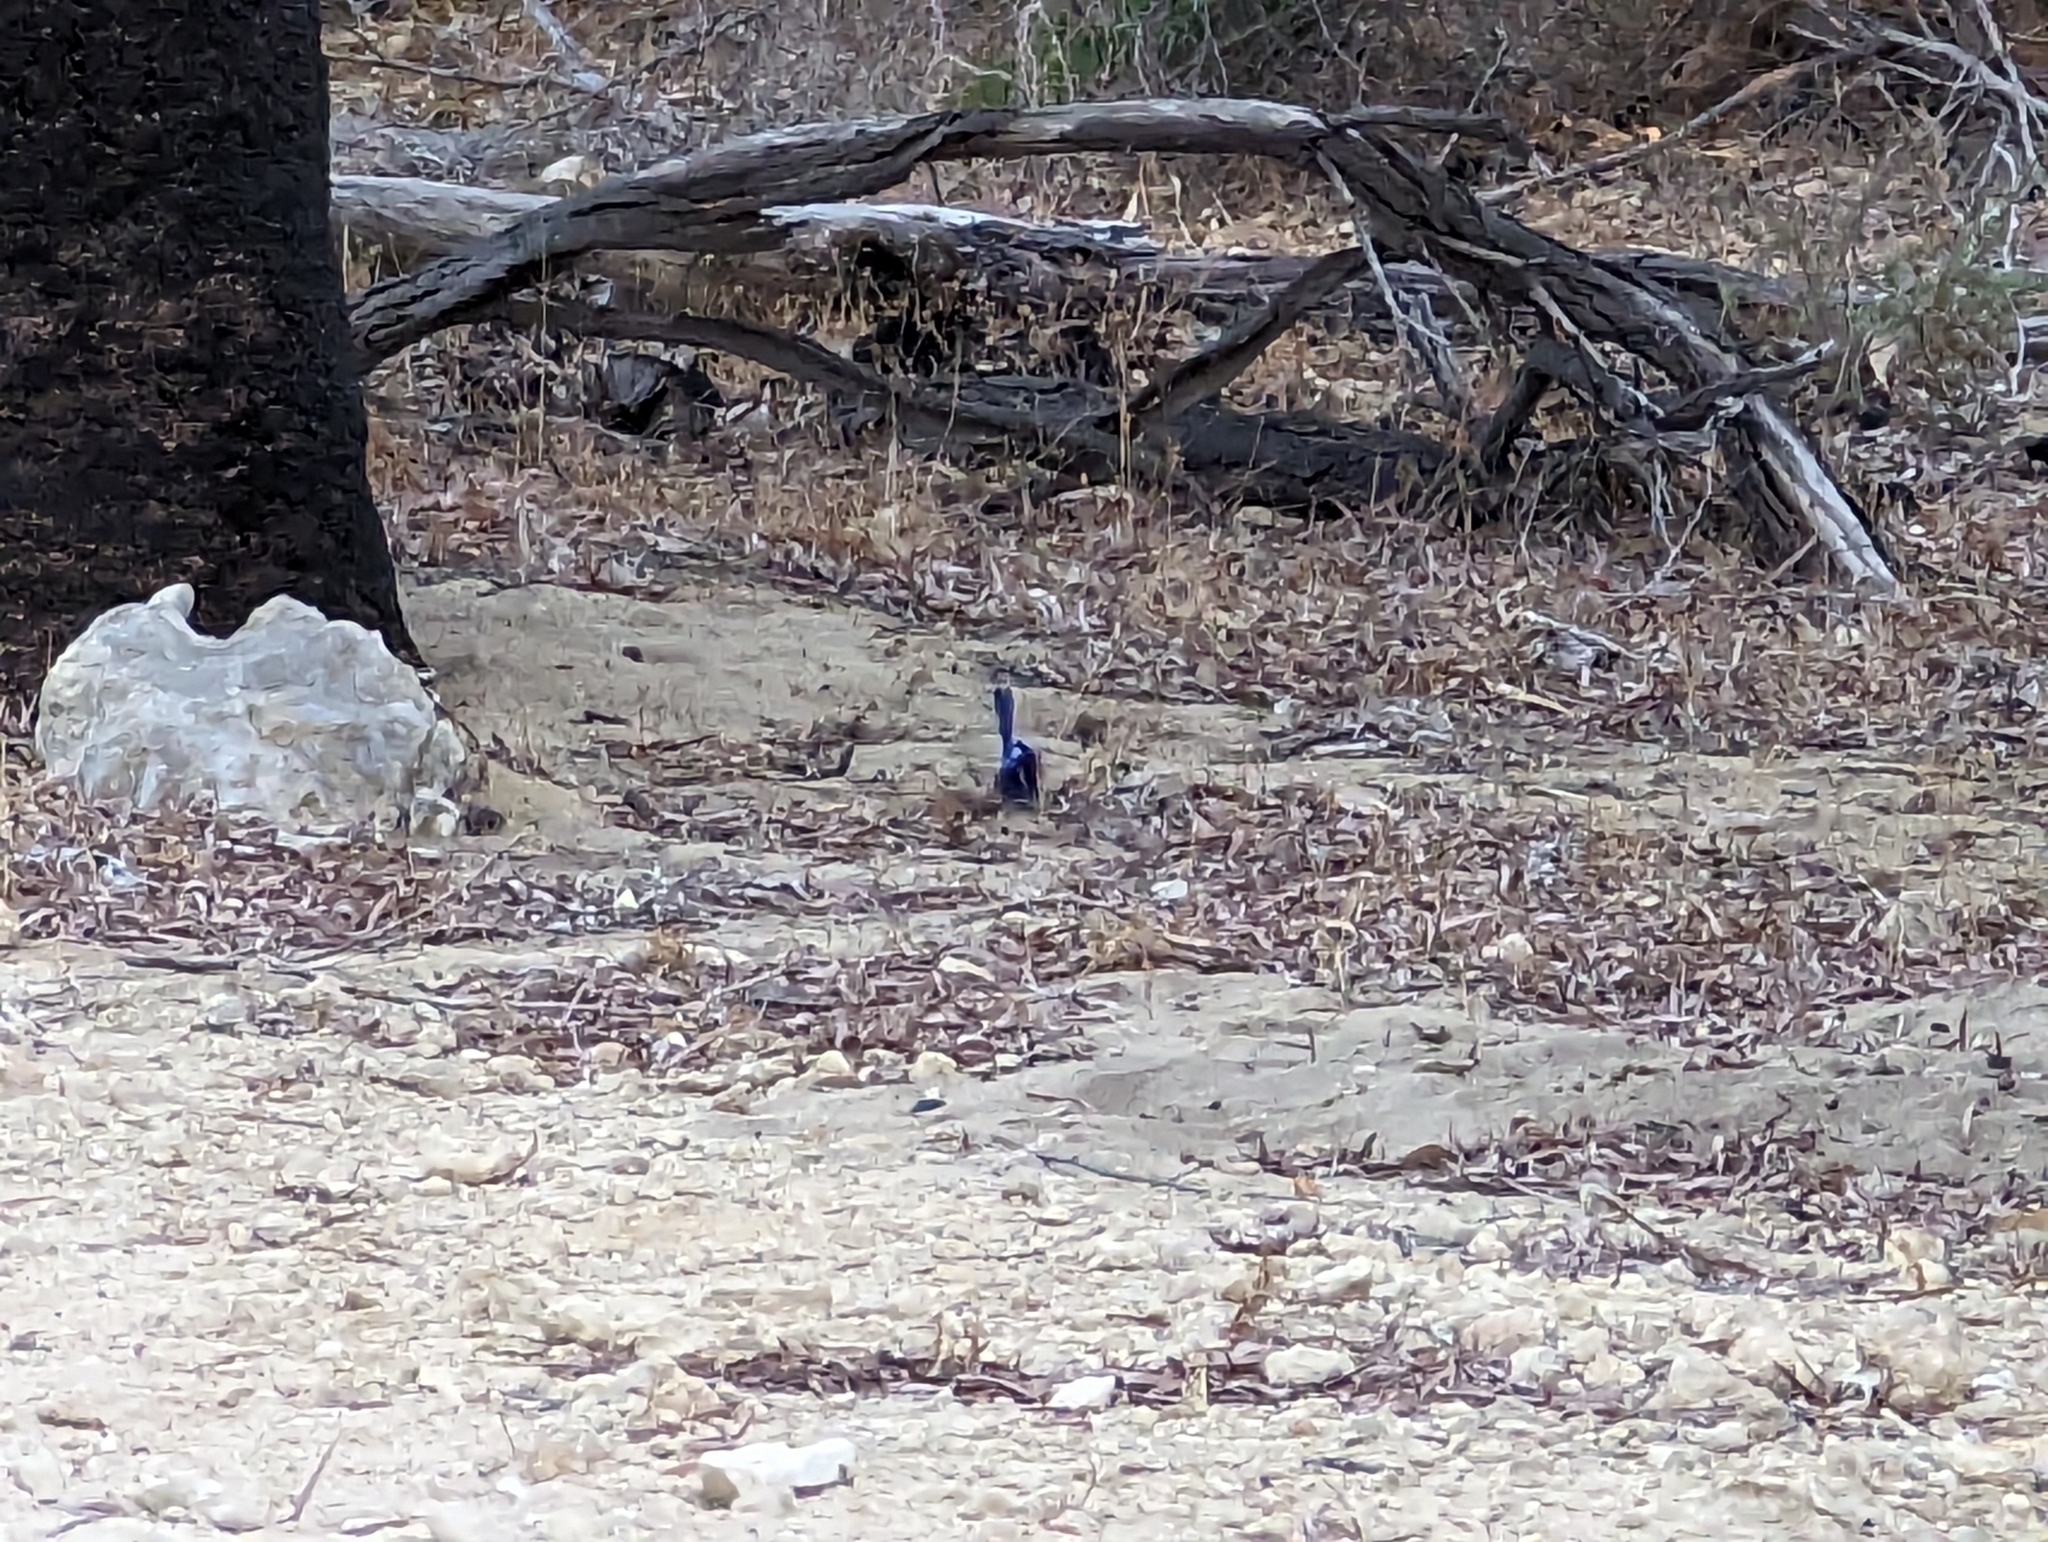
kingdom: Animalia
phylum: Chordata
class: Aves
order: Passeriformes
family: Maluridae
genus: Malurus
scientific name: Malurus splendens
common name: Splendid fairywren
